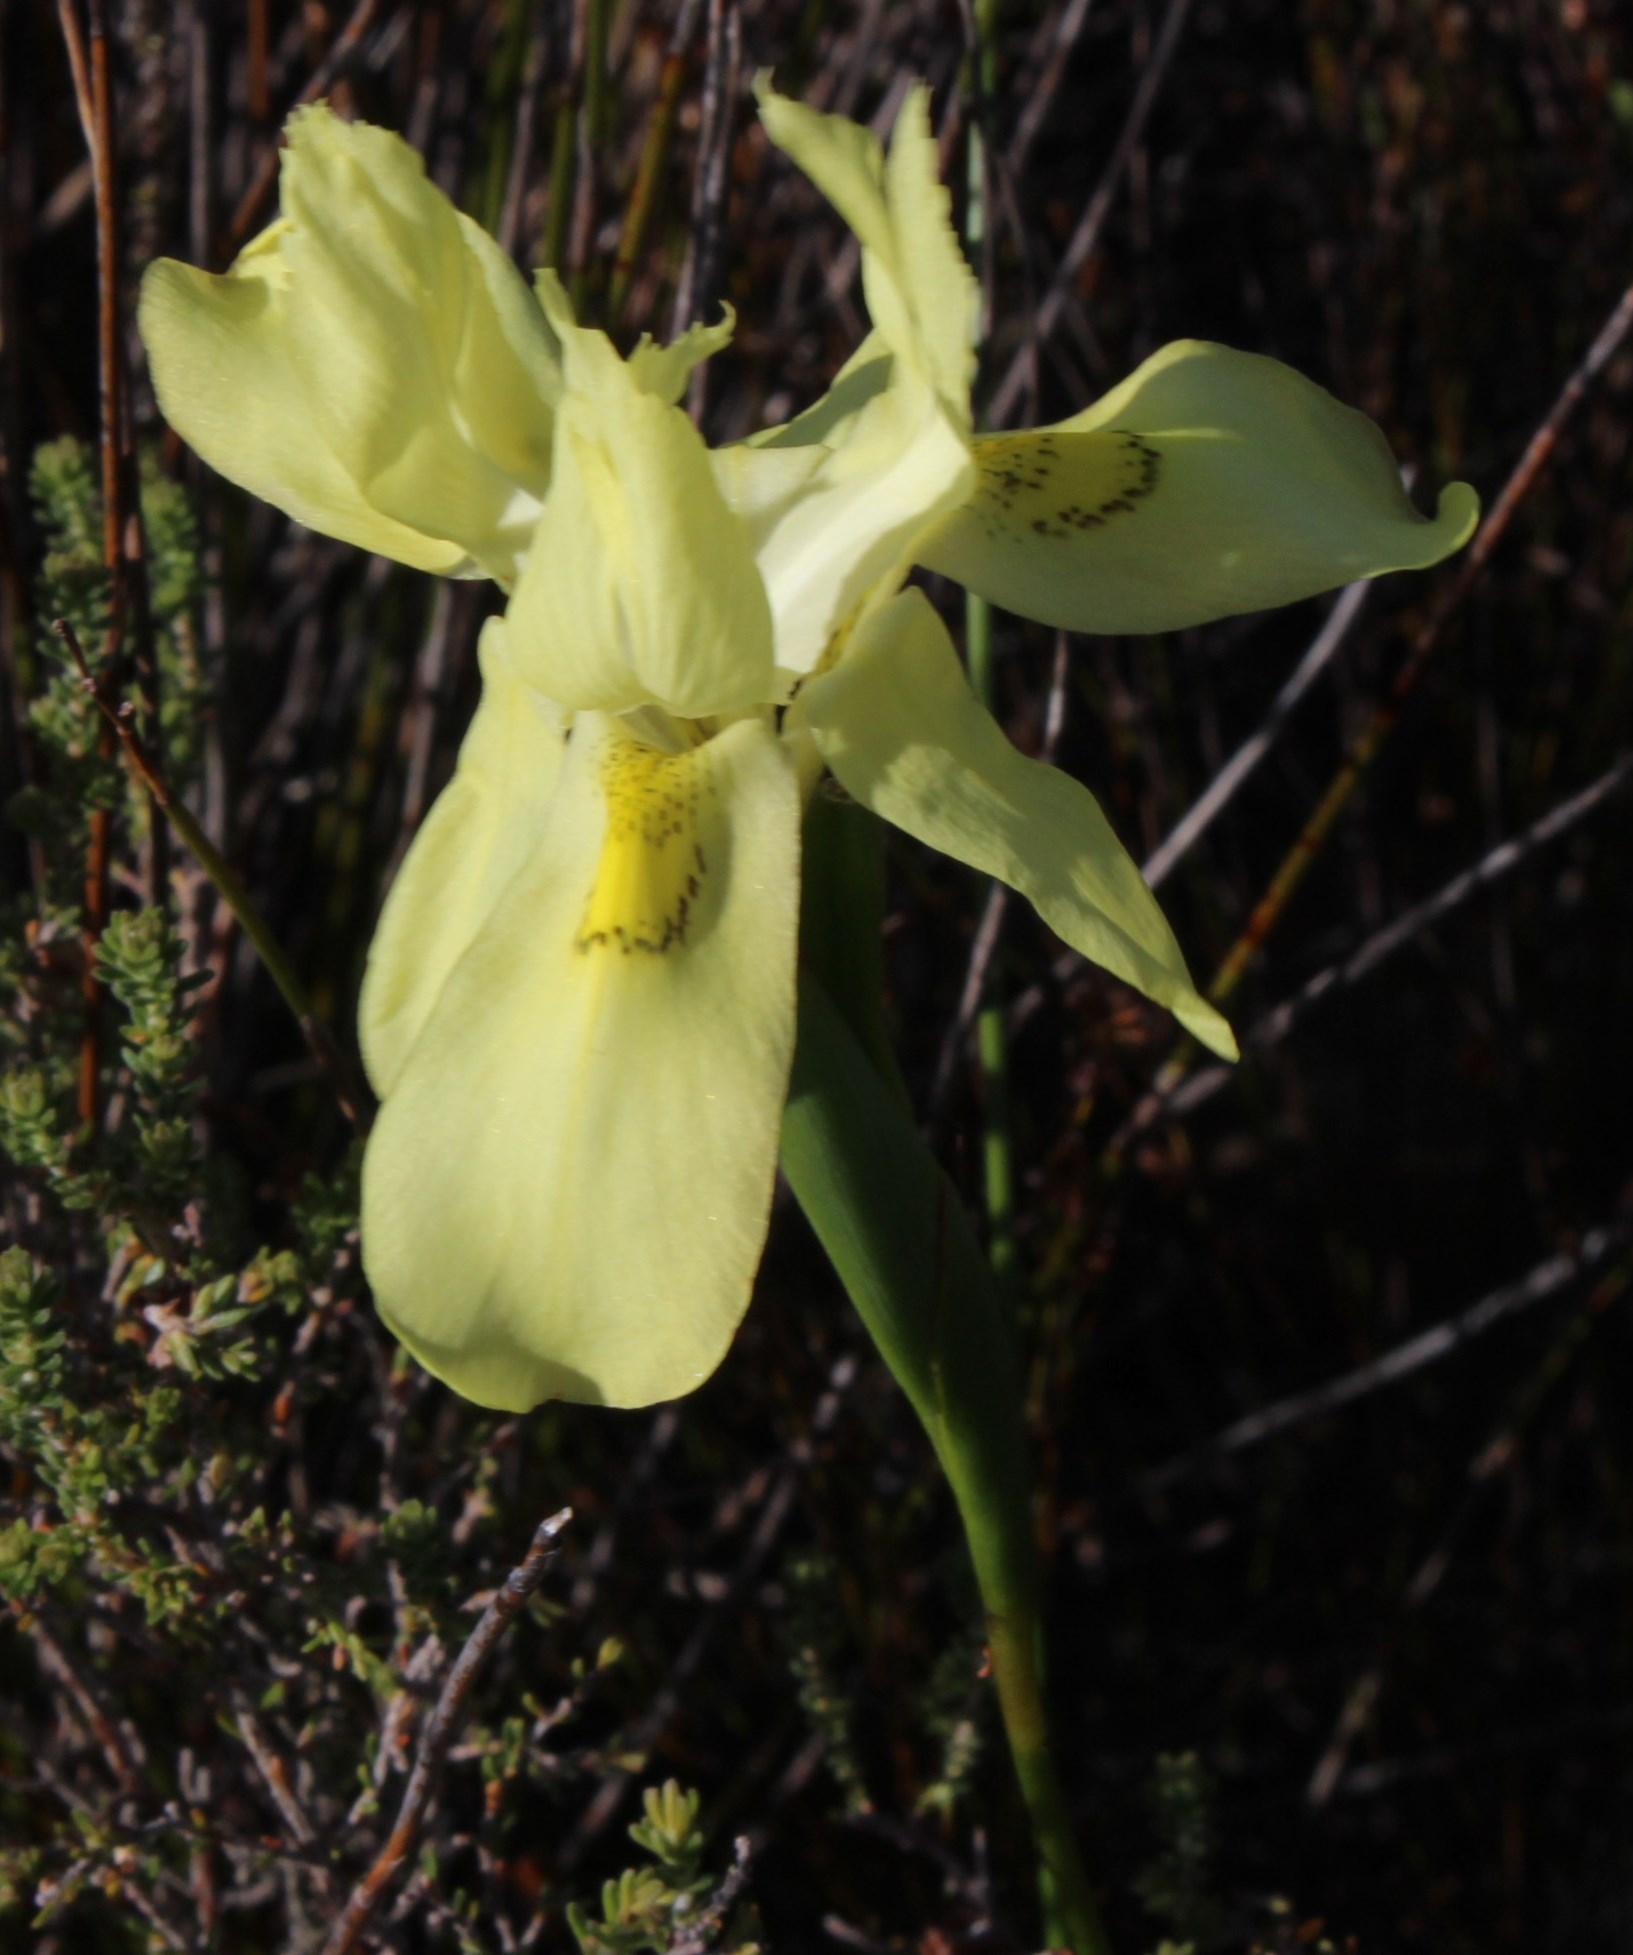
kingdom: Plantae
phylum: Tracheophyta
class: Liliopsida
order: Asparagales
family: Iridaceae
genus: Moraea
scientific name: Moraea anomala
